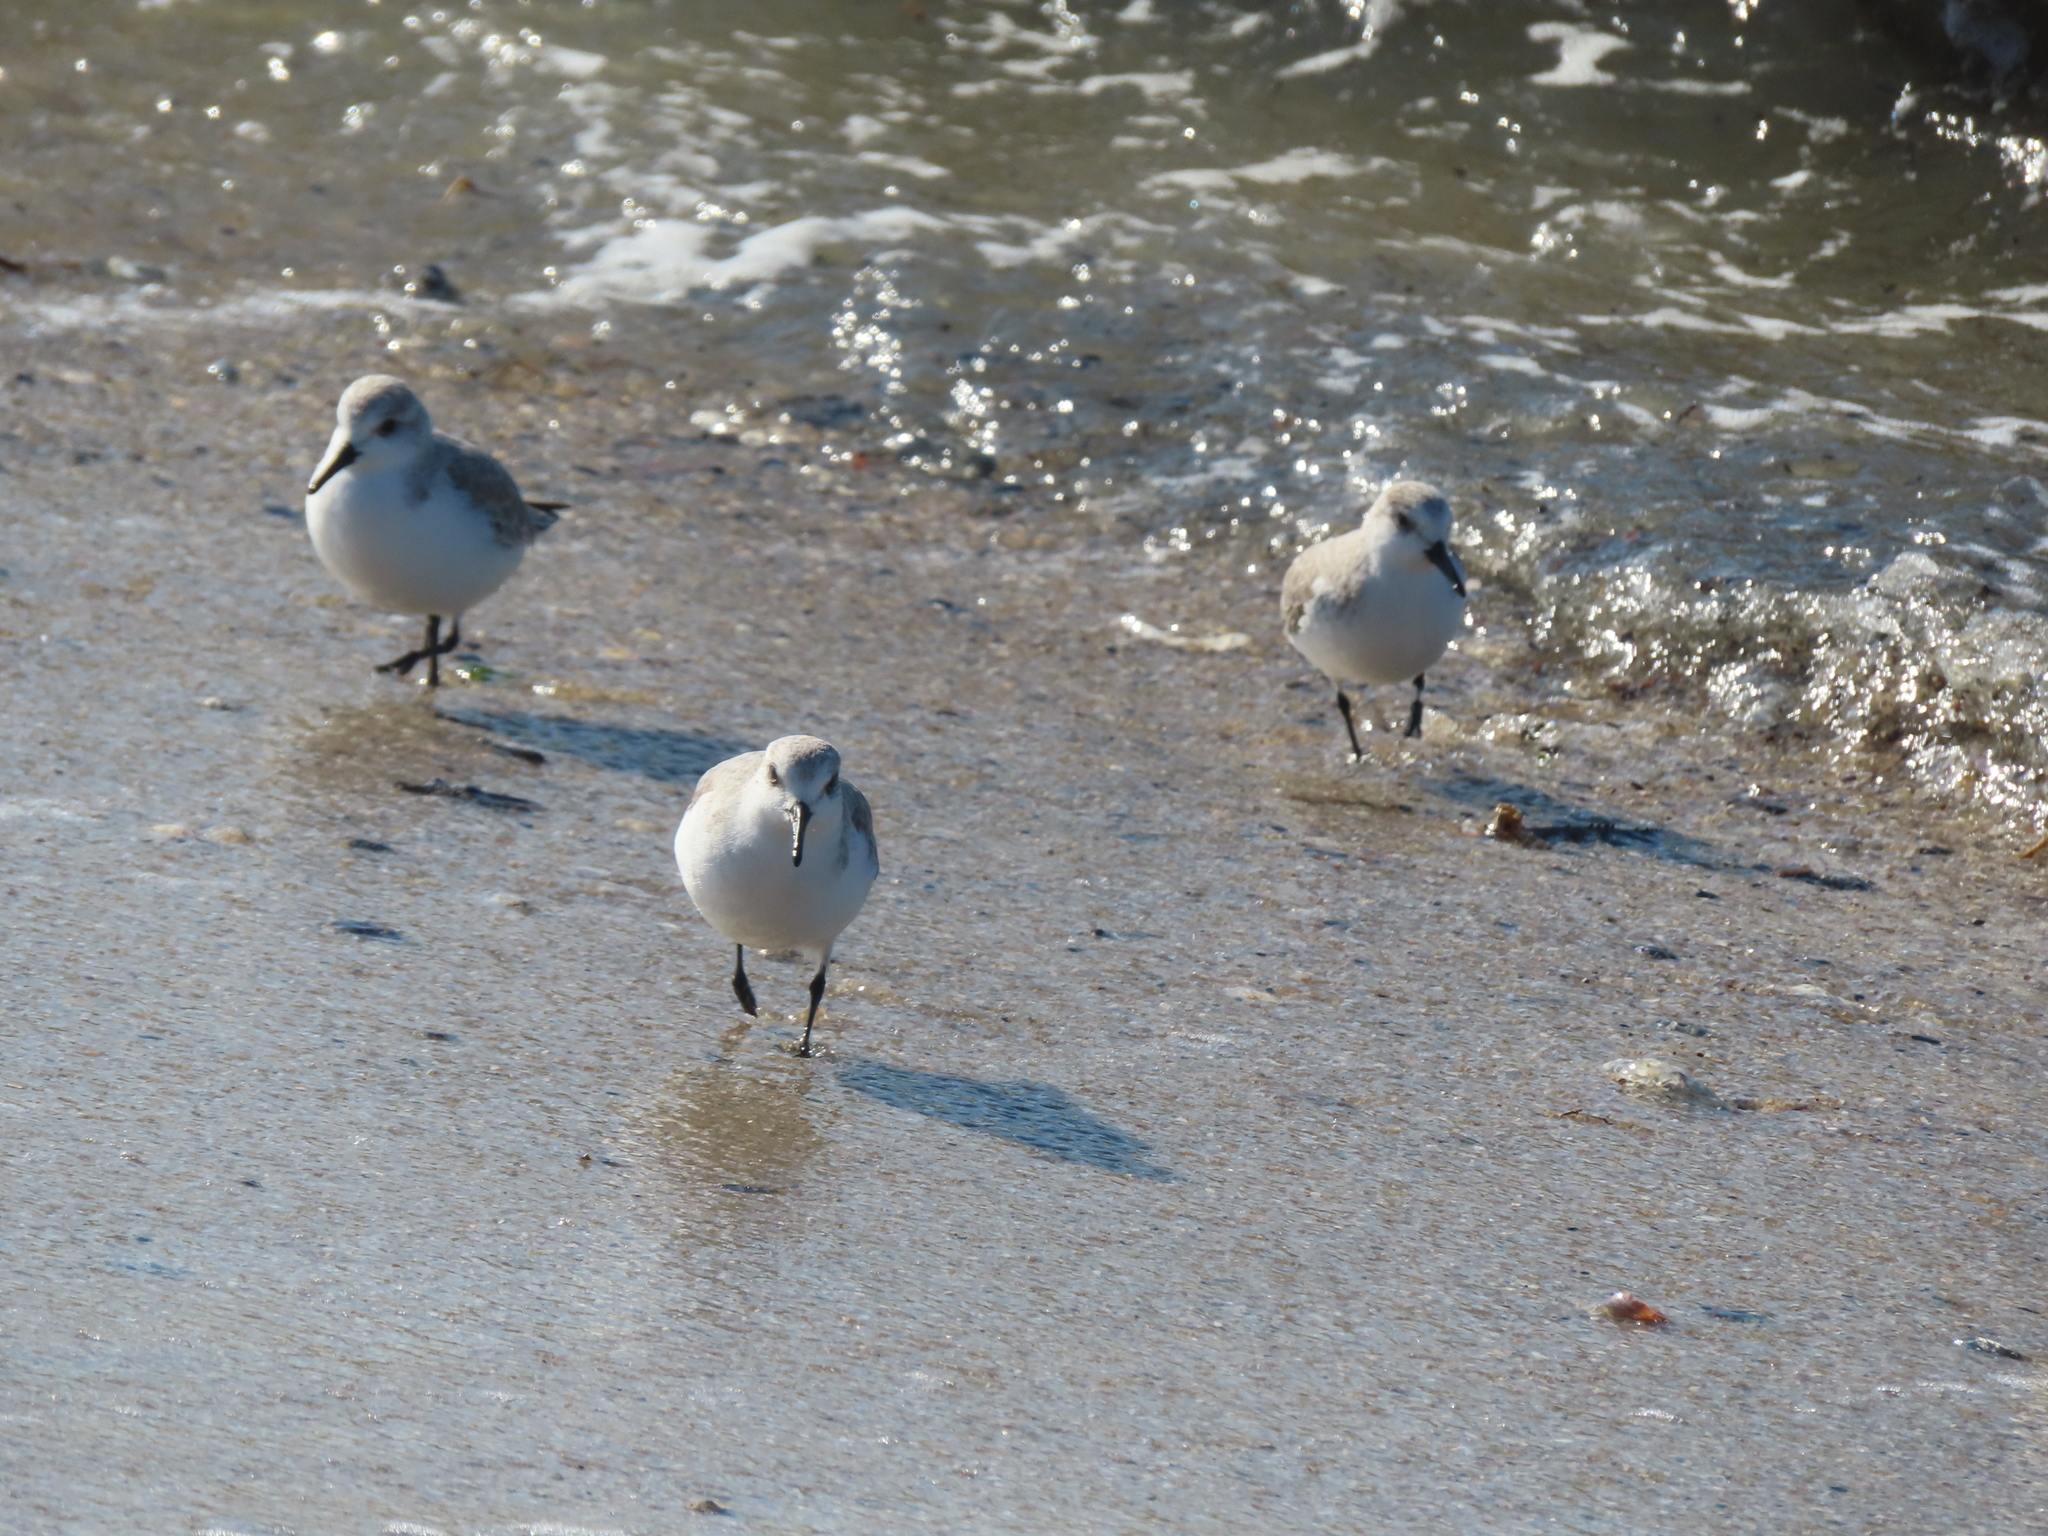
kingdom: Animalia
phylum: Chordata
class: Aves
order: Charadriiformes
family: Scolopacidae
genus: Calidris
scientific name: Calidris alba
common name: Sanderling
